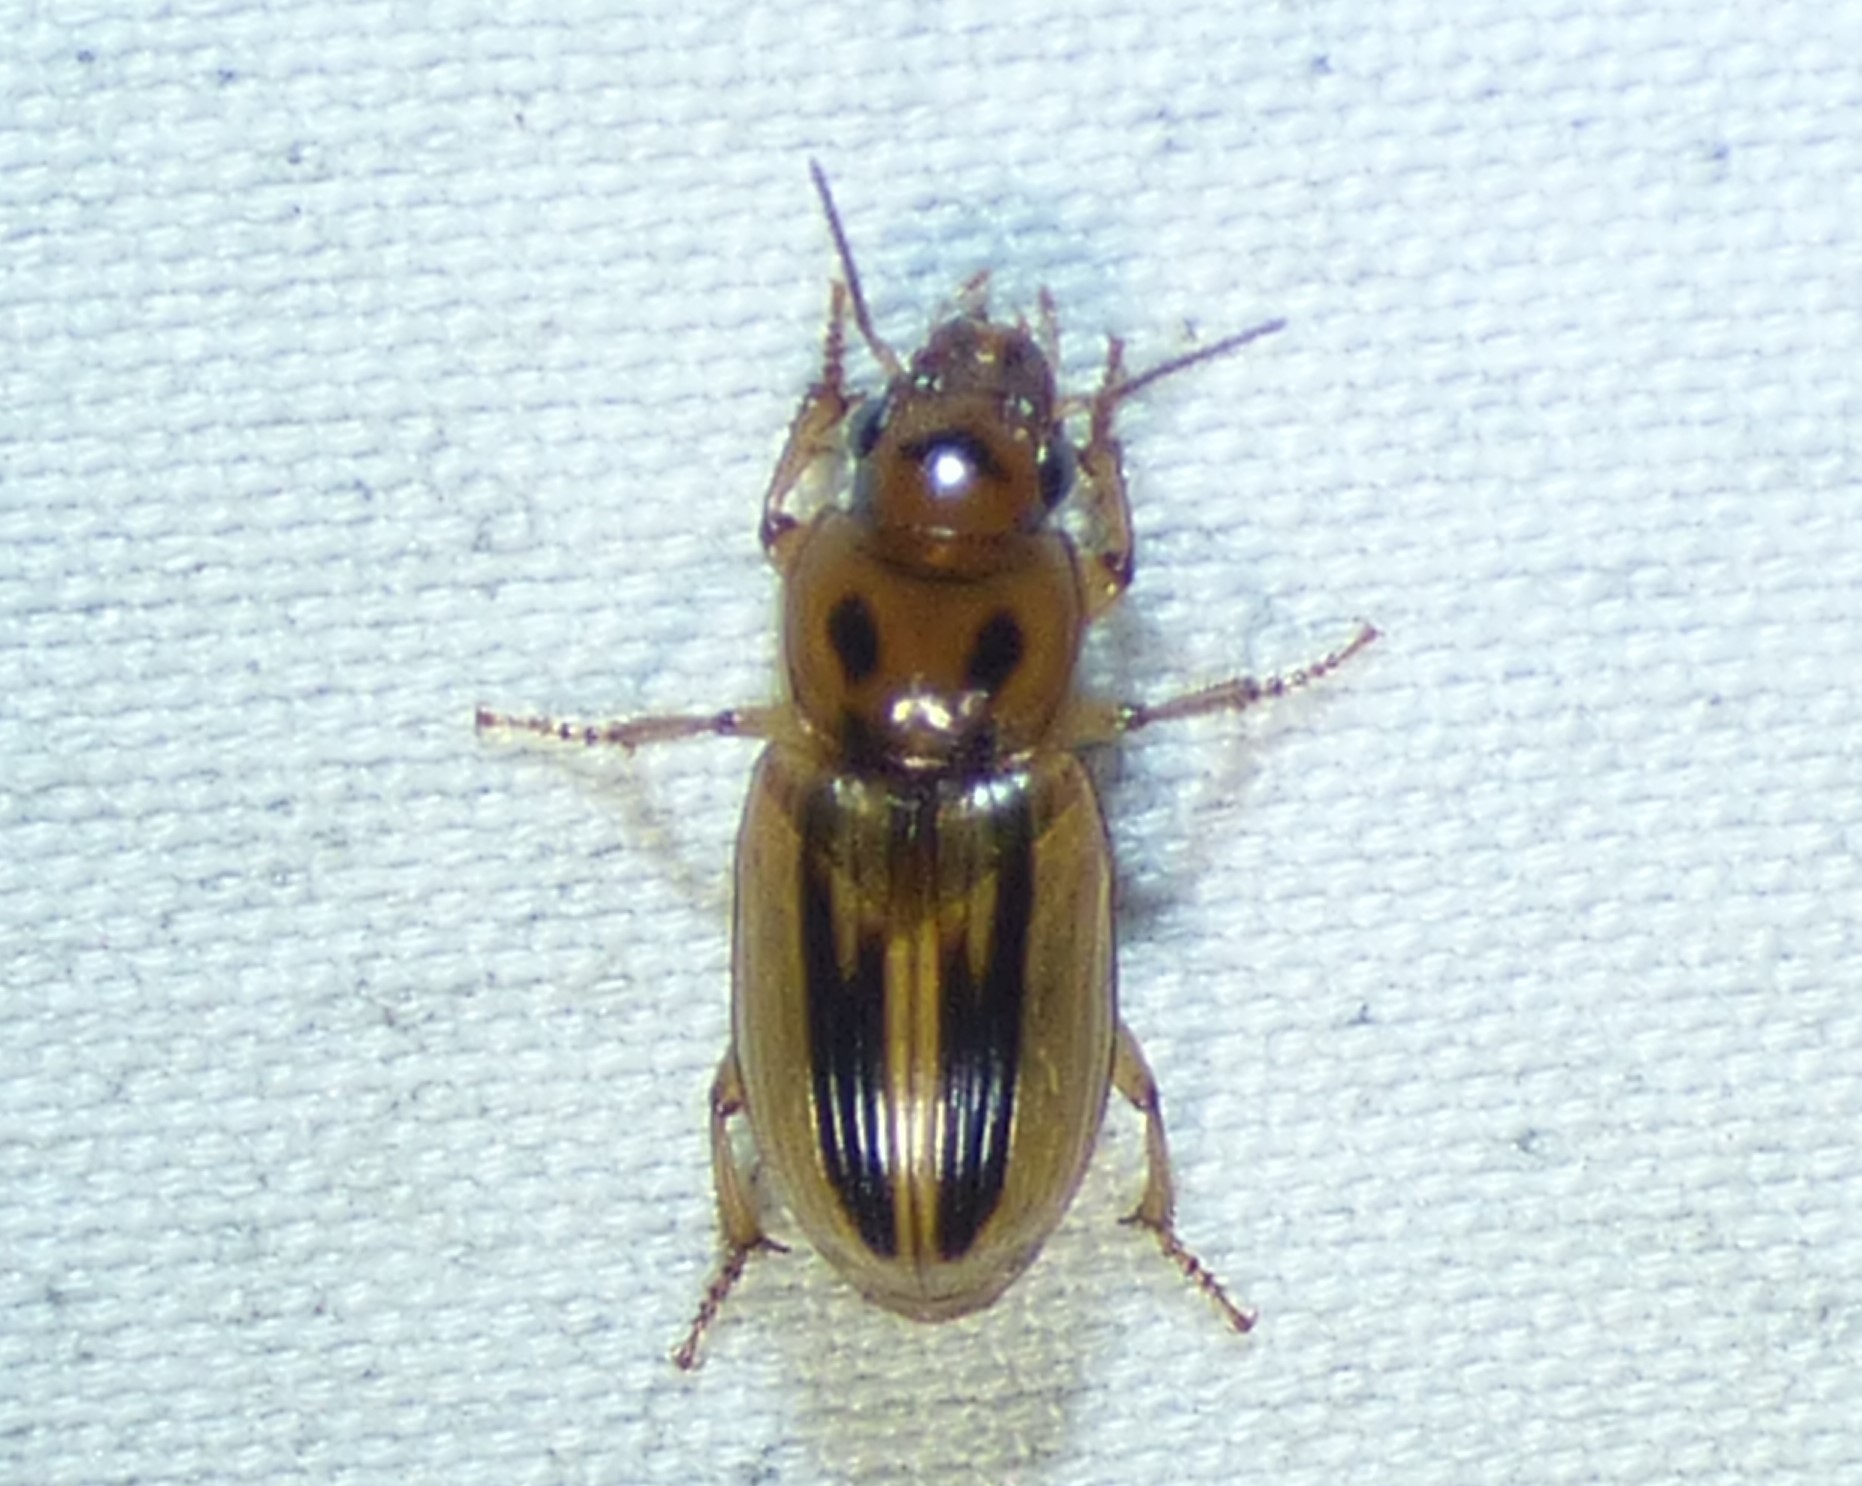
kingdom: Animalia
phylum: Arthropoda
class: Insecta
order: Coleoptera
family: Carabidae
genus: Stenolophus
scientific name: Stenolophus lineola
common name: Lined stenolophus
